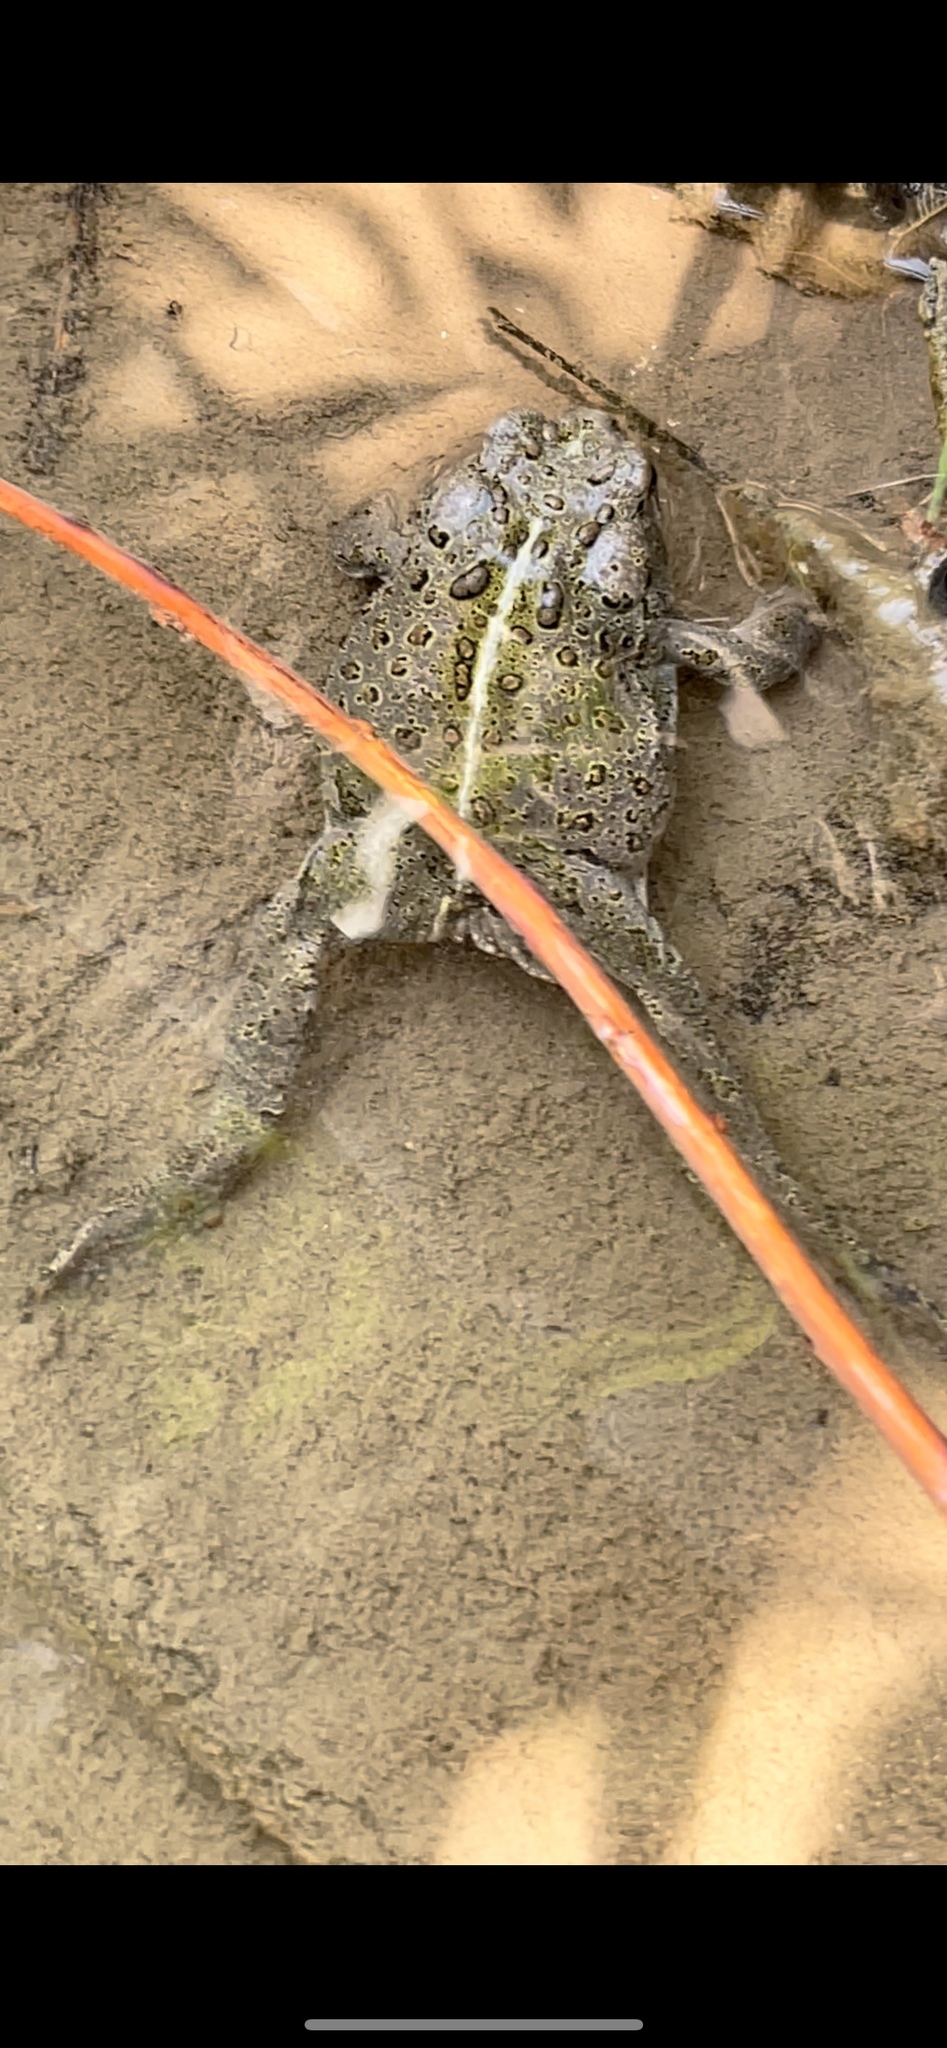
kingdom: Animalia
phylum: Chordata
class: Amphibia
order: Anura
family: Bufonidae
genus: Anaxyrus
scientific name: Anaxyrus boreas
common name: Western toad
